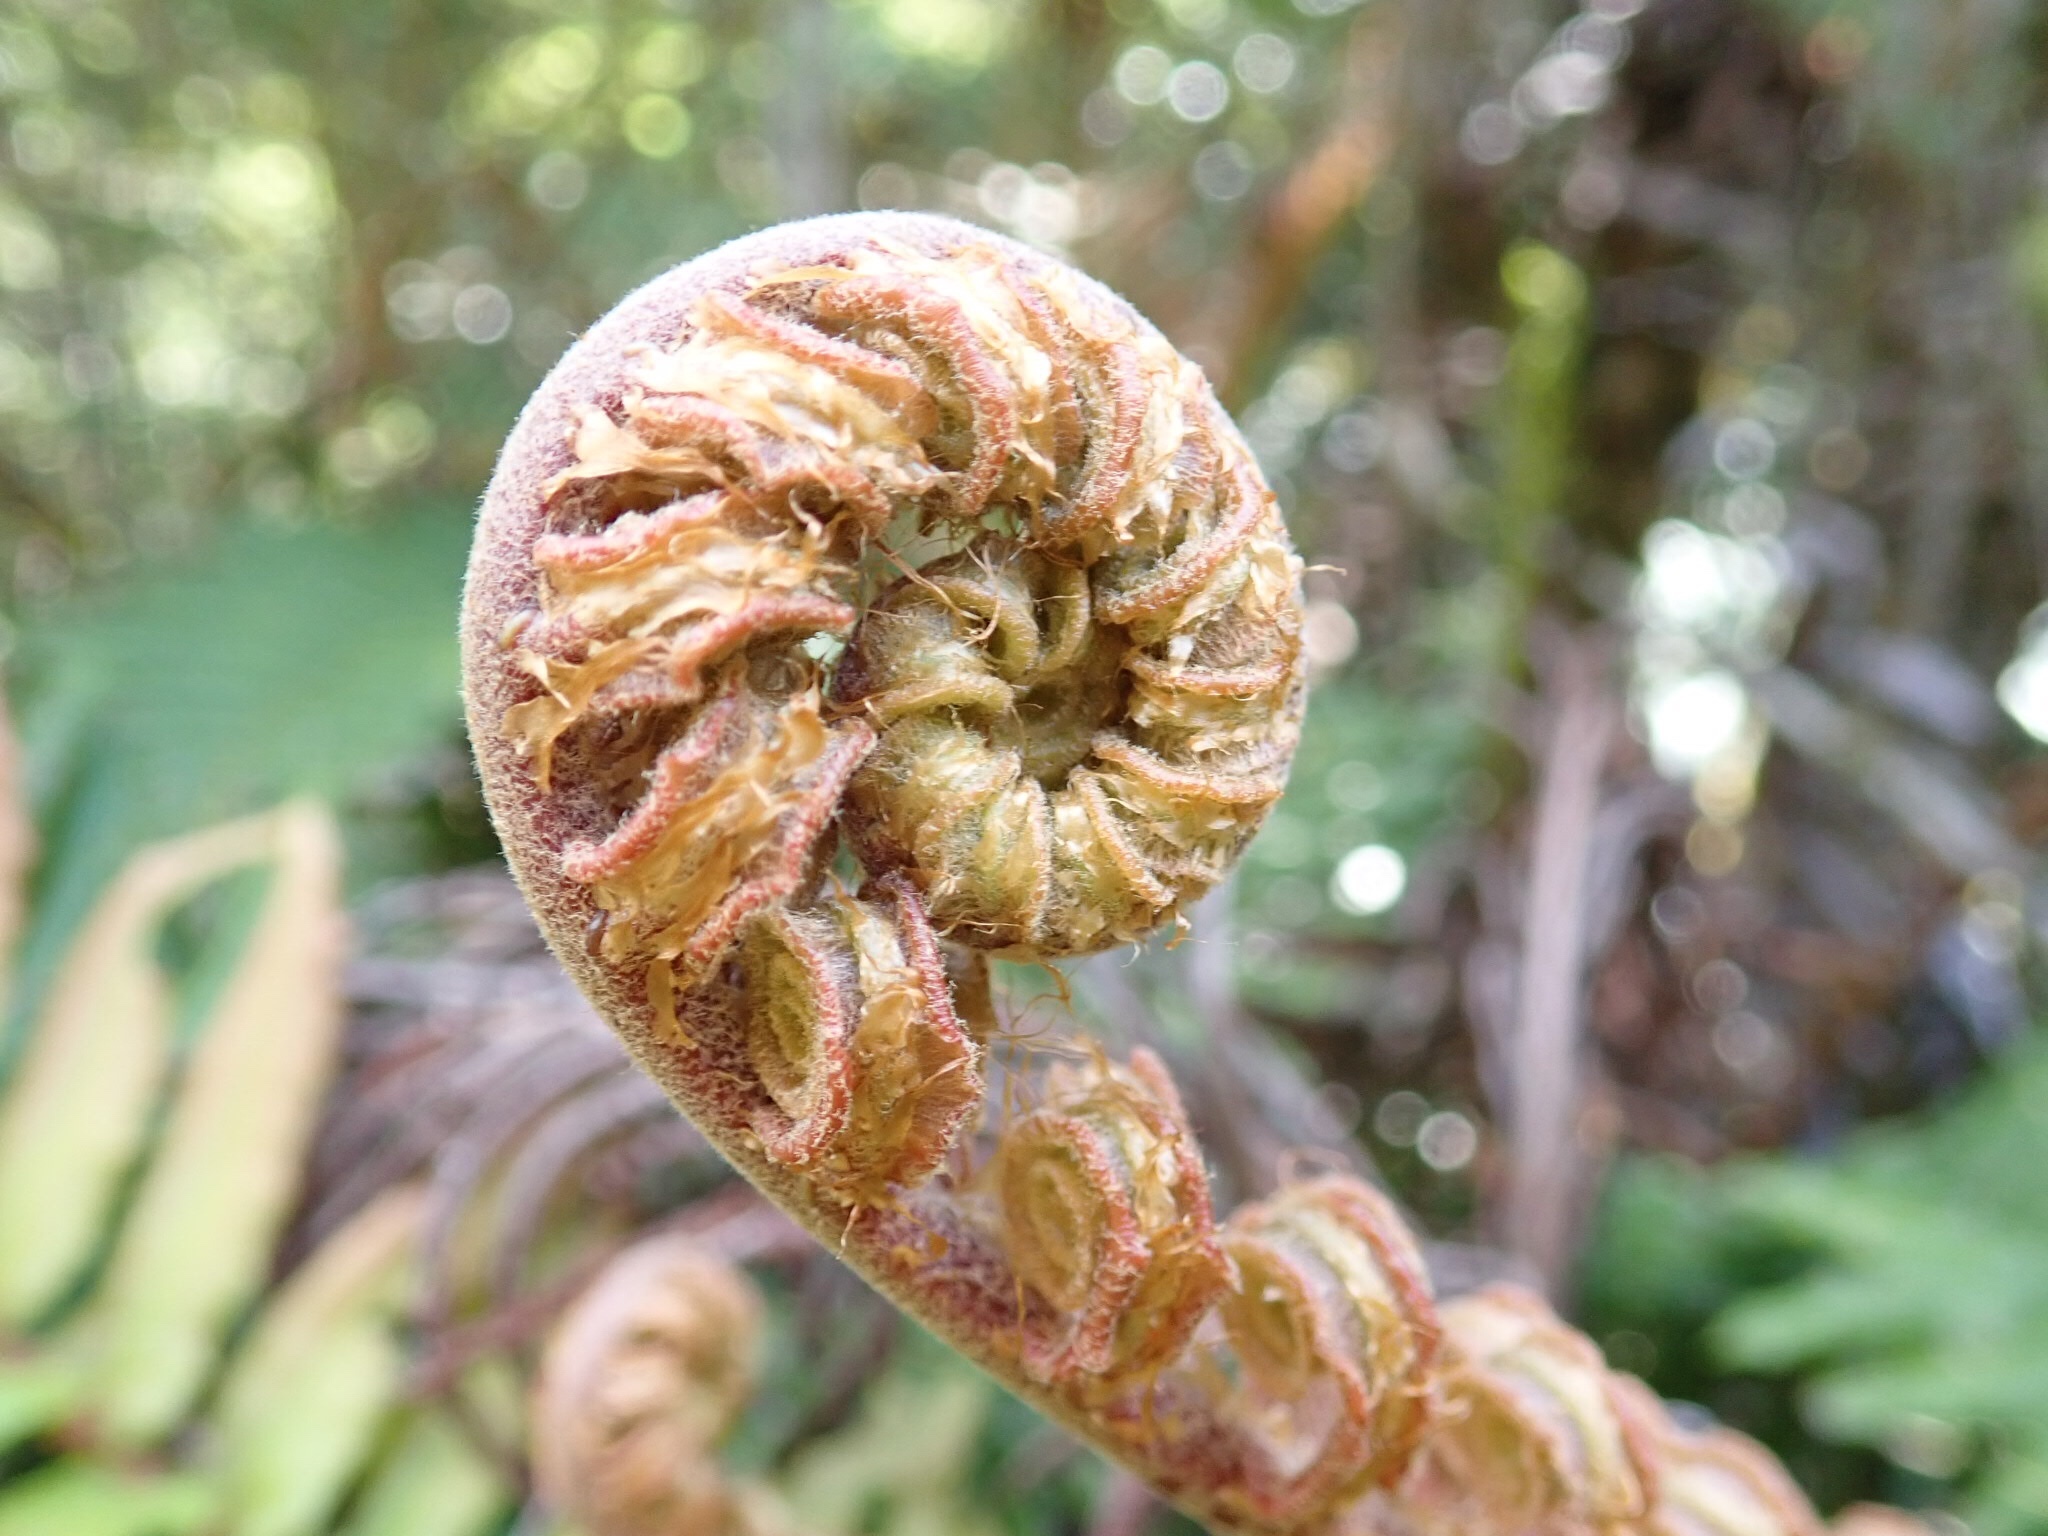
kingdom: Plantae
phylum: Tracheophyta
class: Polypodiopsida
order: Polypodiales
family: Blechnaceae
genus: Parablechnum
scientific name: Parablechnum chilense
